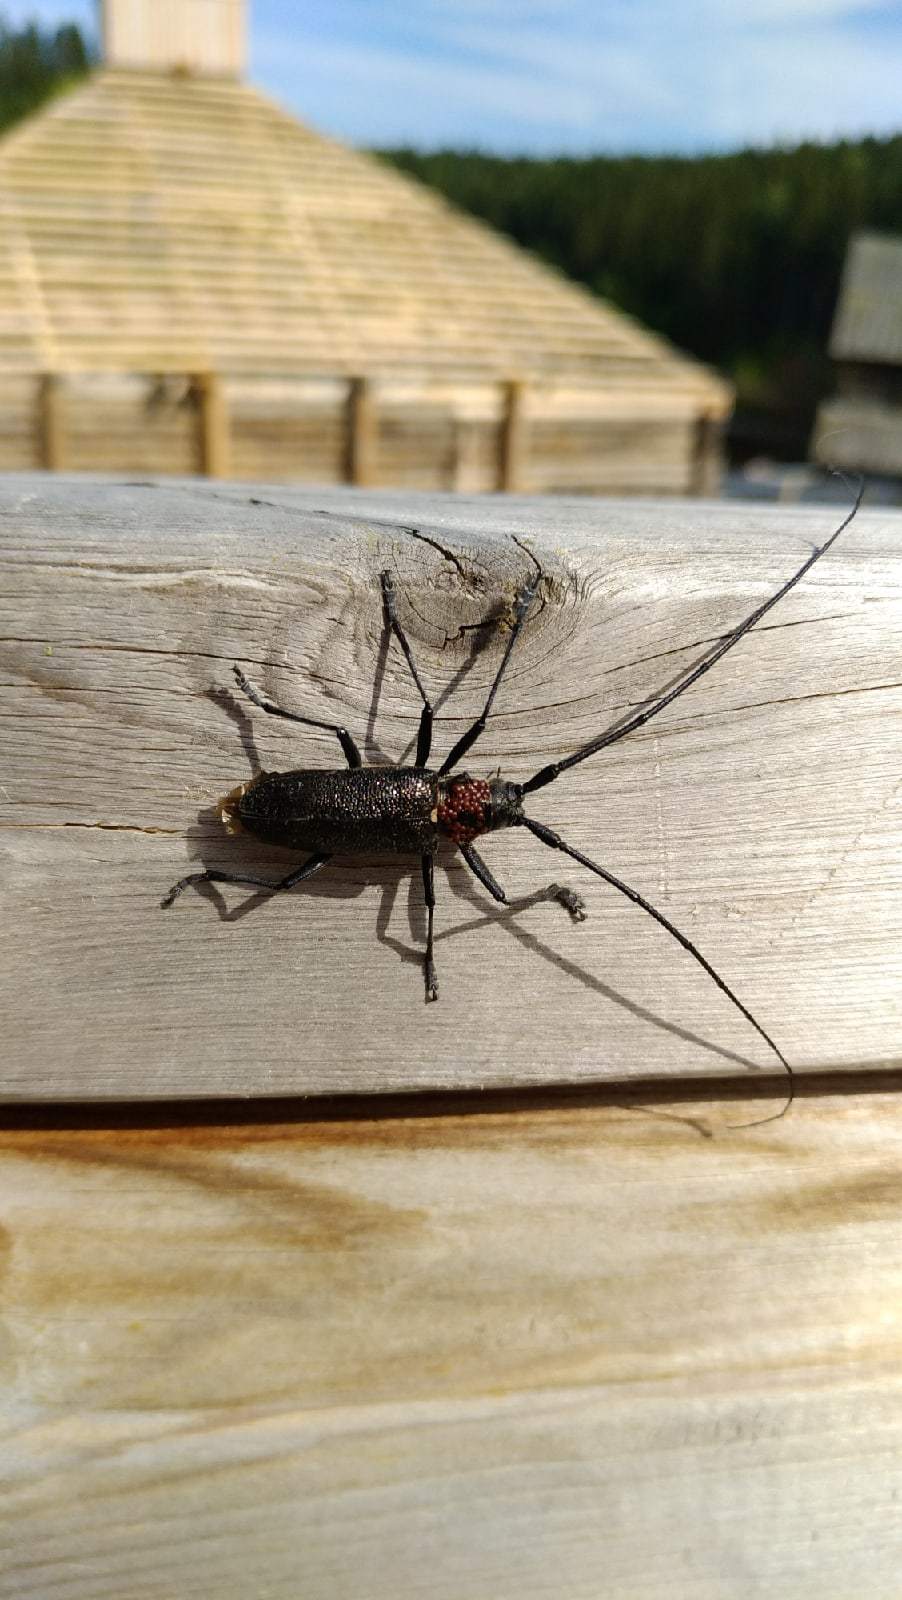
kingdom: Animalia
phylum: Arthropoda
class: Insecta
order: Coleoptera
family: Cerambycidae
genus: Monochamus
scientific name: Monochamus sutor
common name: Pine sawyer
